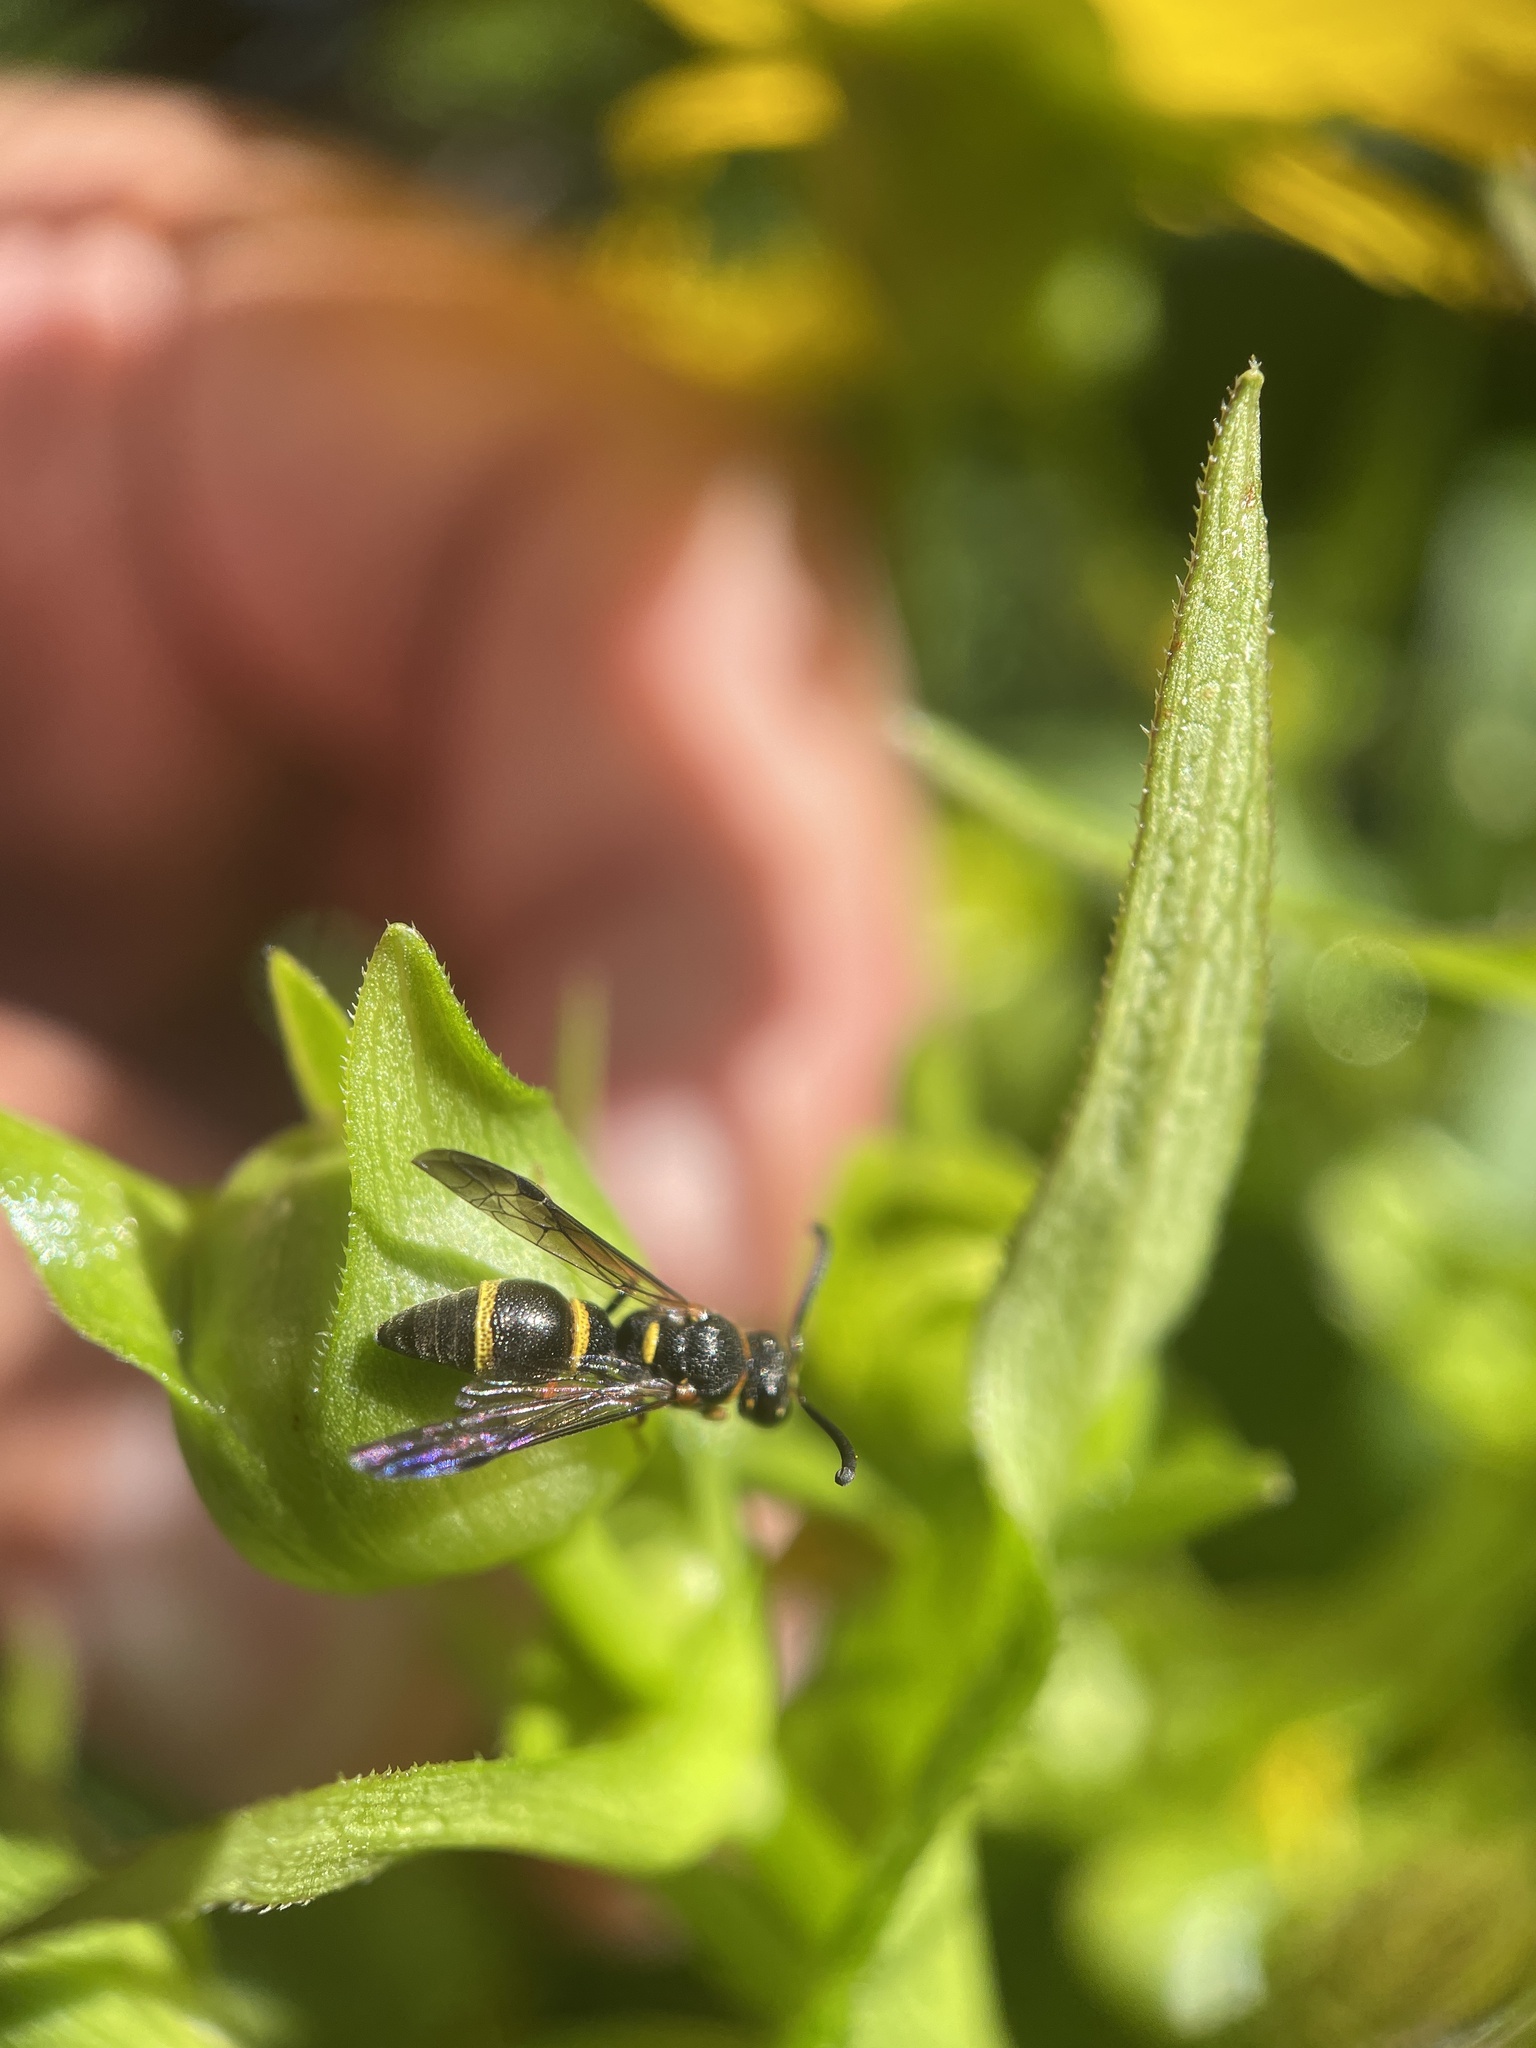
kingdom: Animalia
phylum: Arthropoda
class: Insecta
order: Hymenoptera
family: Eumenidae
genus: Parancistrocerus
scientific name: Parancistrocerus perennis
